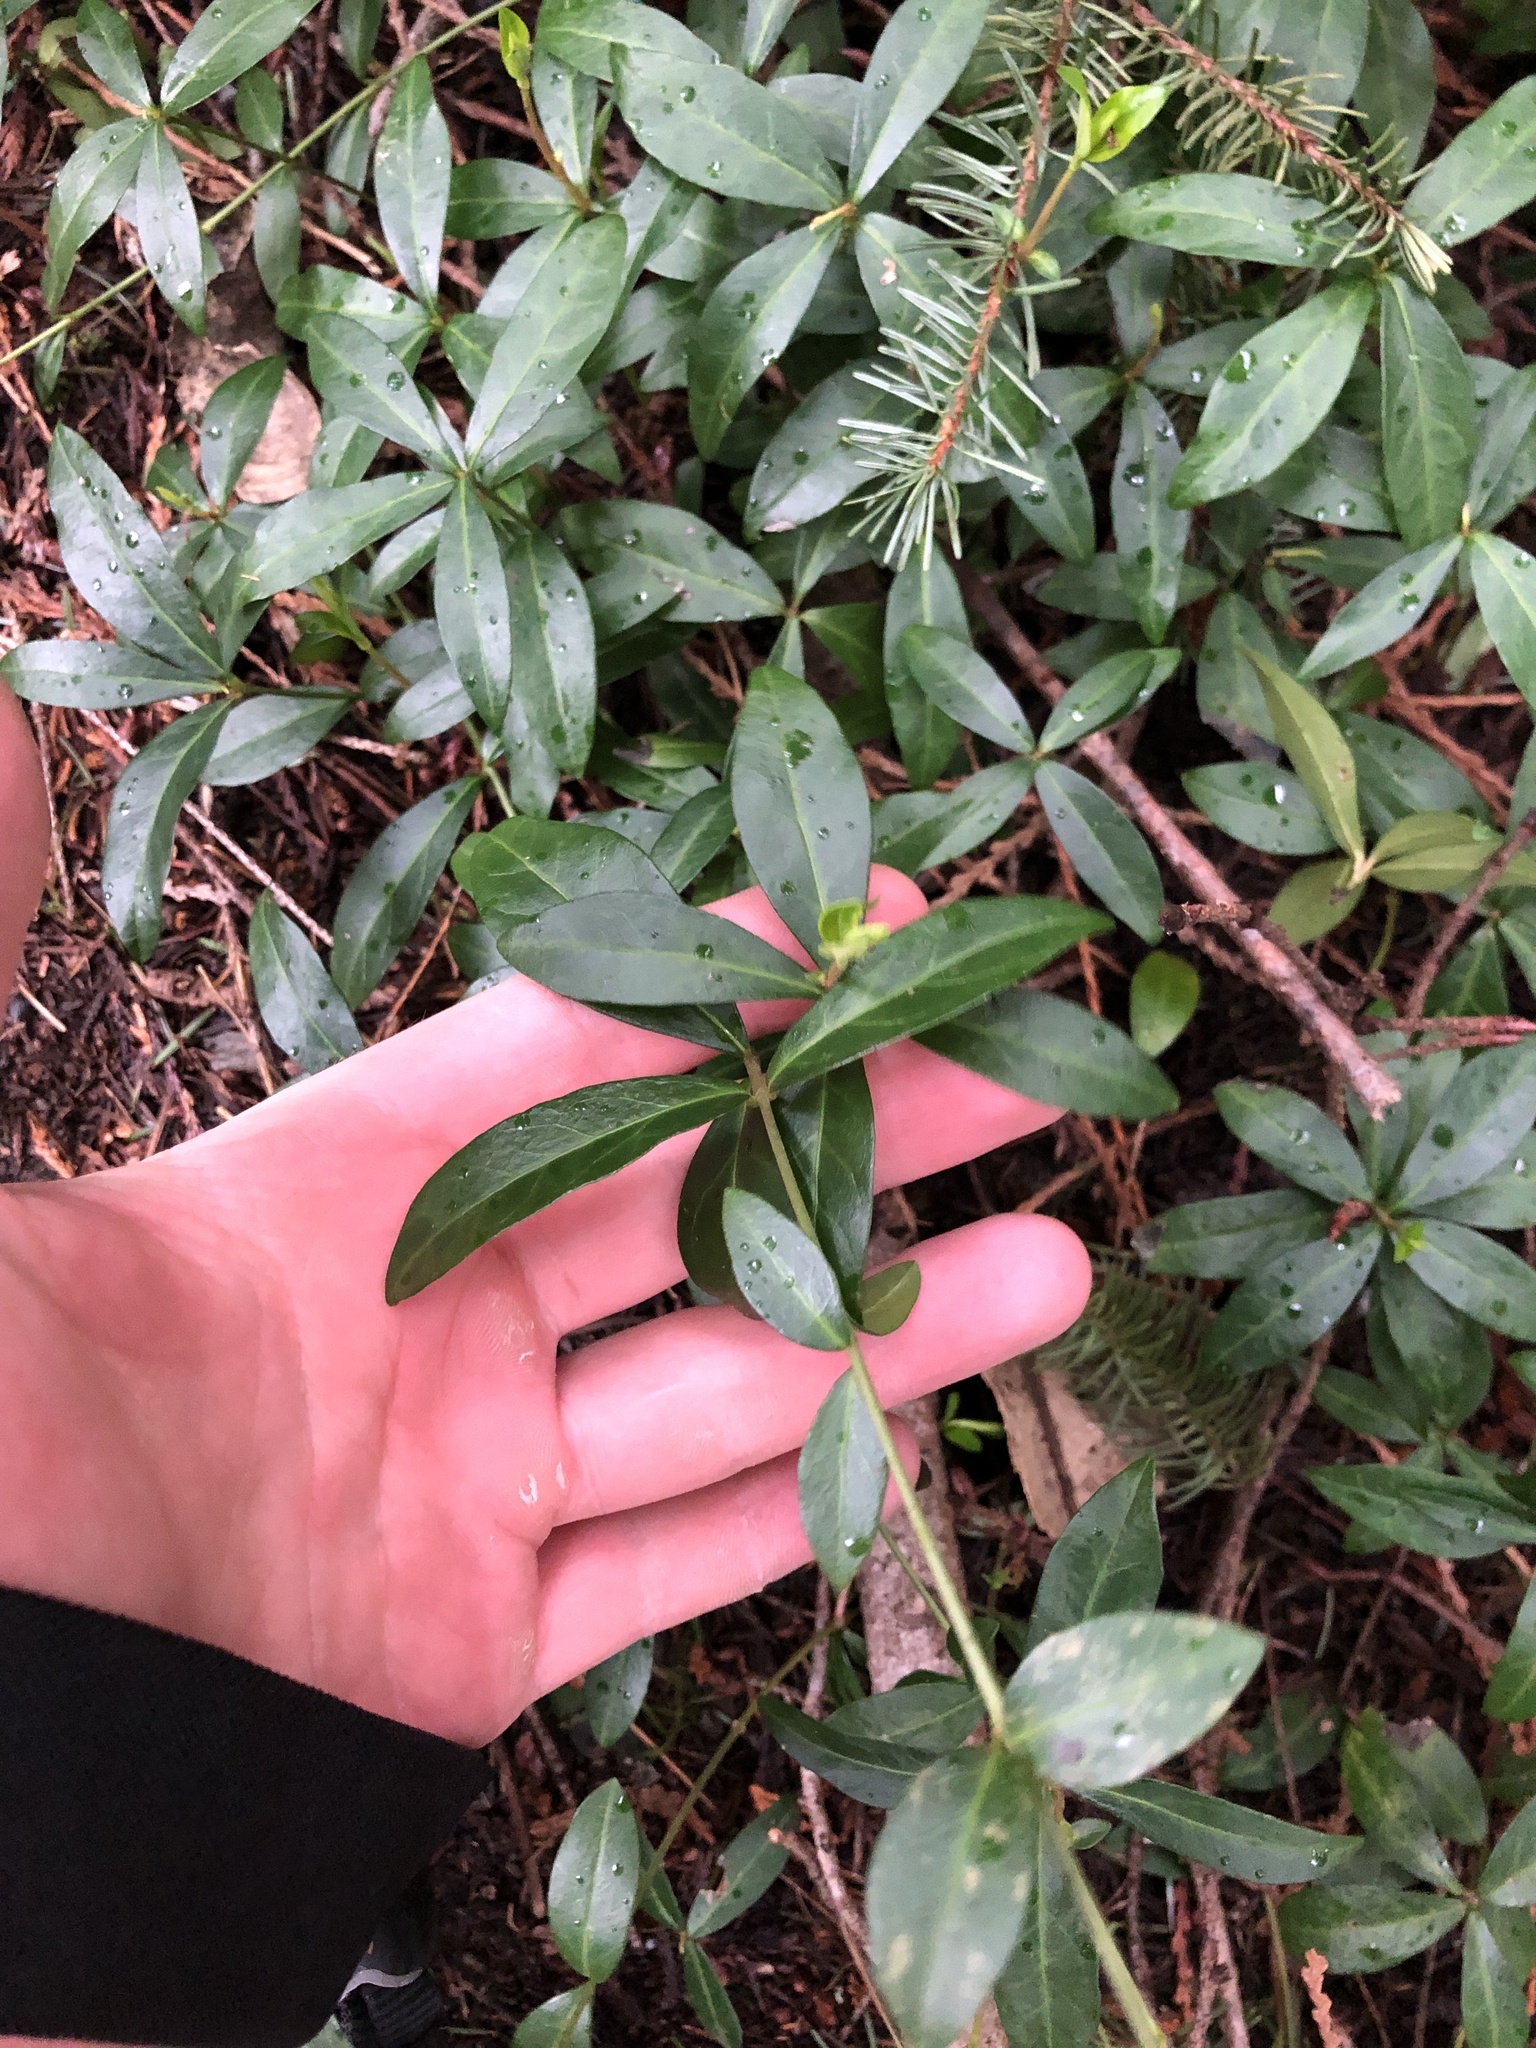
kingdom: Plantae
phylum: Tracheophyta
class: Magnoliopsida
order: Gentianales
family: Apocynaceae
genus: Vinca
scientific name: Vinca minor
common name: Lesser periwinkle
